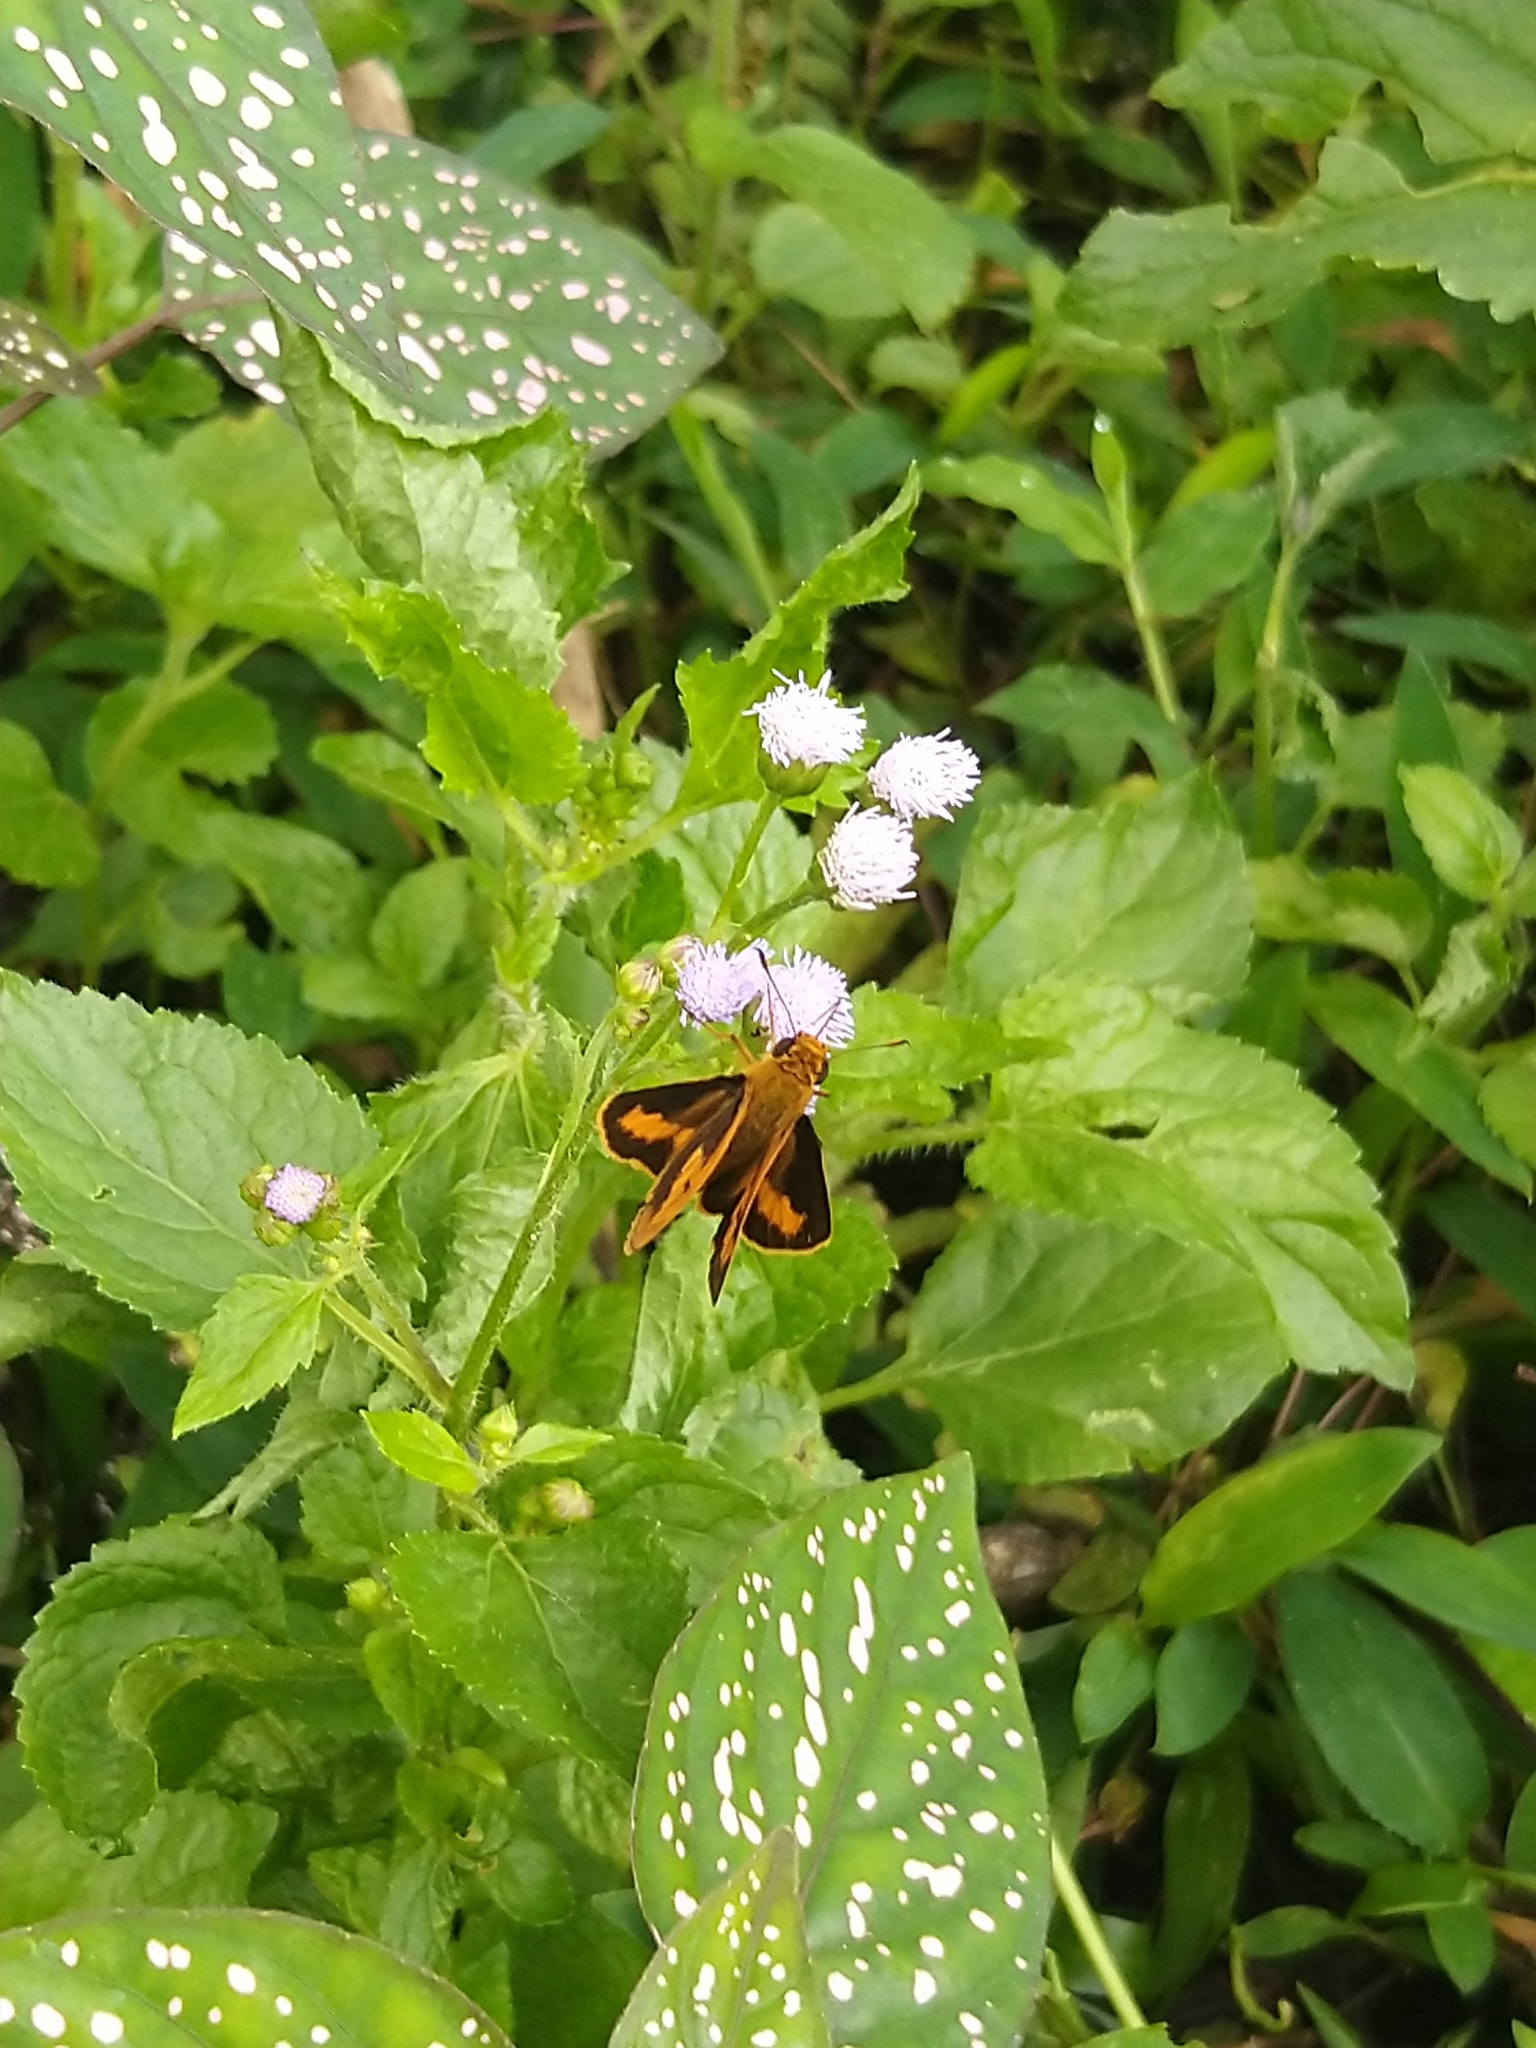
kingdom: Animalia
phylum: Arthropoda
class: Insecta
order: Lepidoptera
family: Hesperiidae
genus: Oriens
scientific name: Oriens goloides
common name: Smaller dartlet
